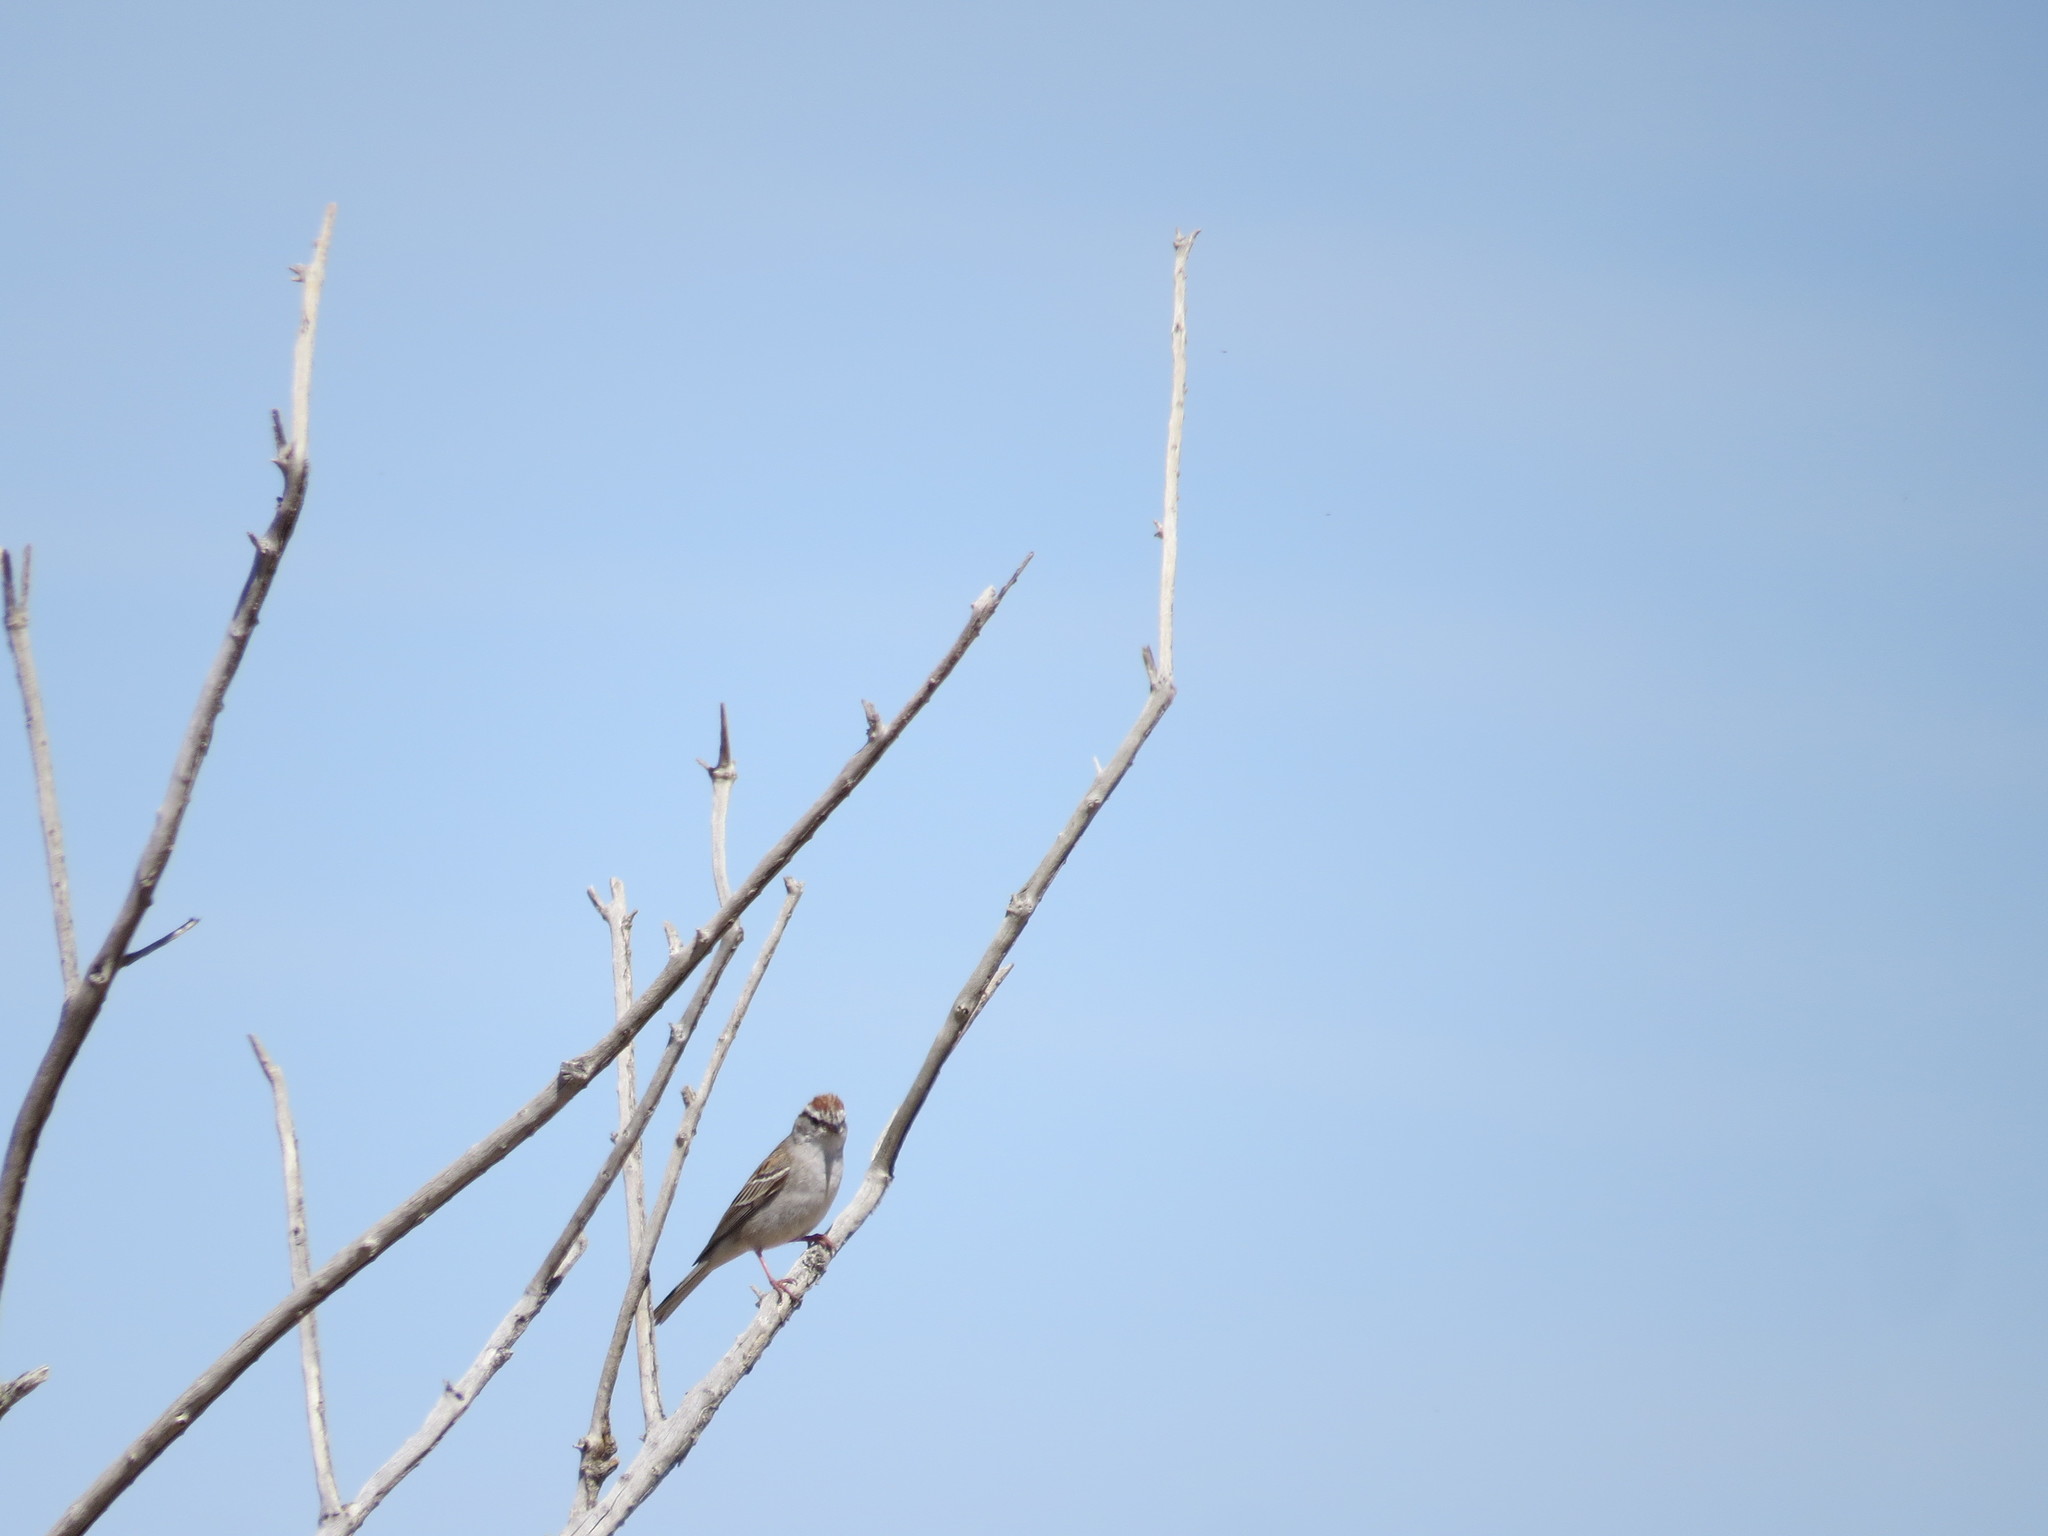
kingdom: Animalia
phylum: Chordata
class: Aves
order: Passeriformes
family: Passerellidae
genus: Spizella
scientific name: Spizella passerina
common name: Chipping sparrow
